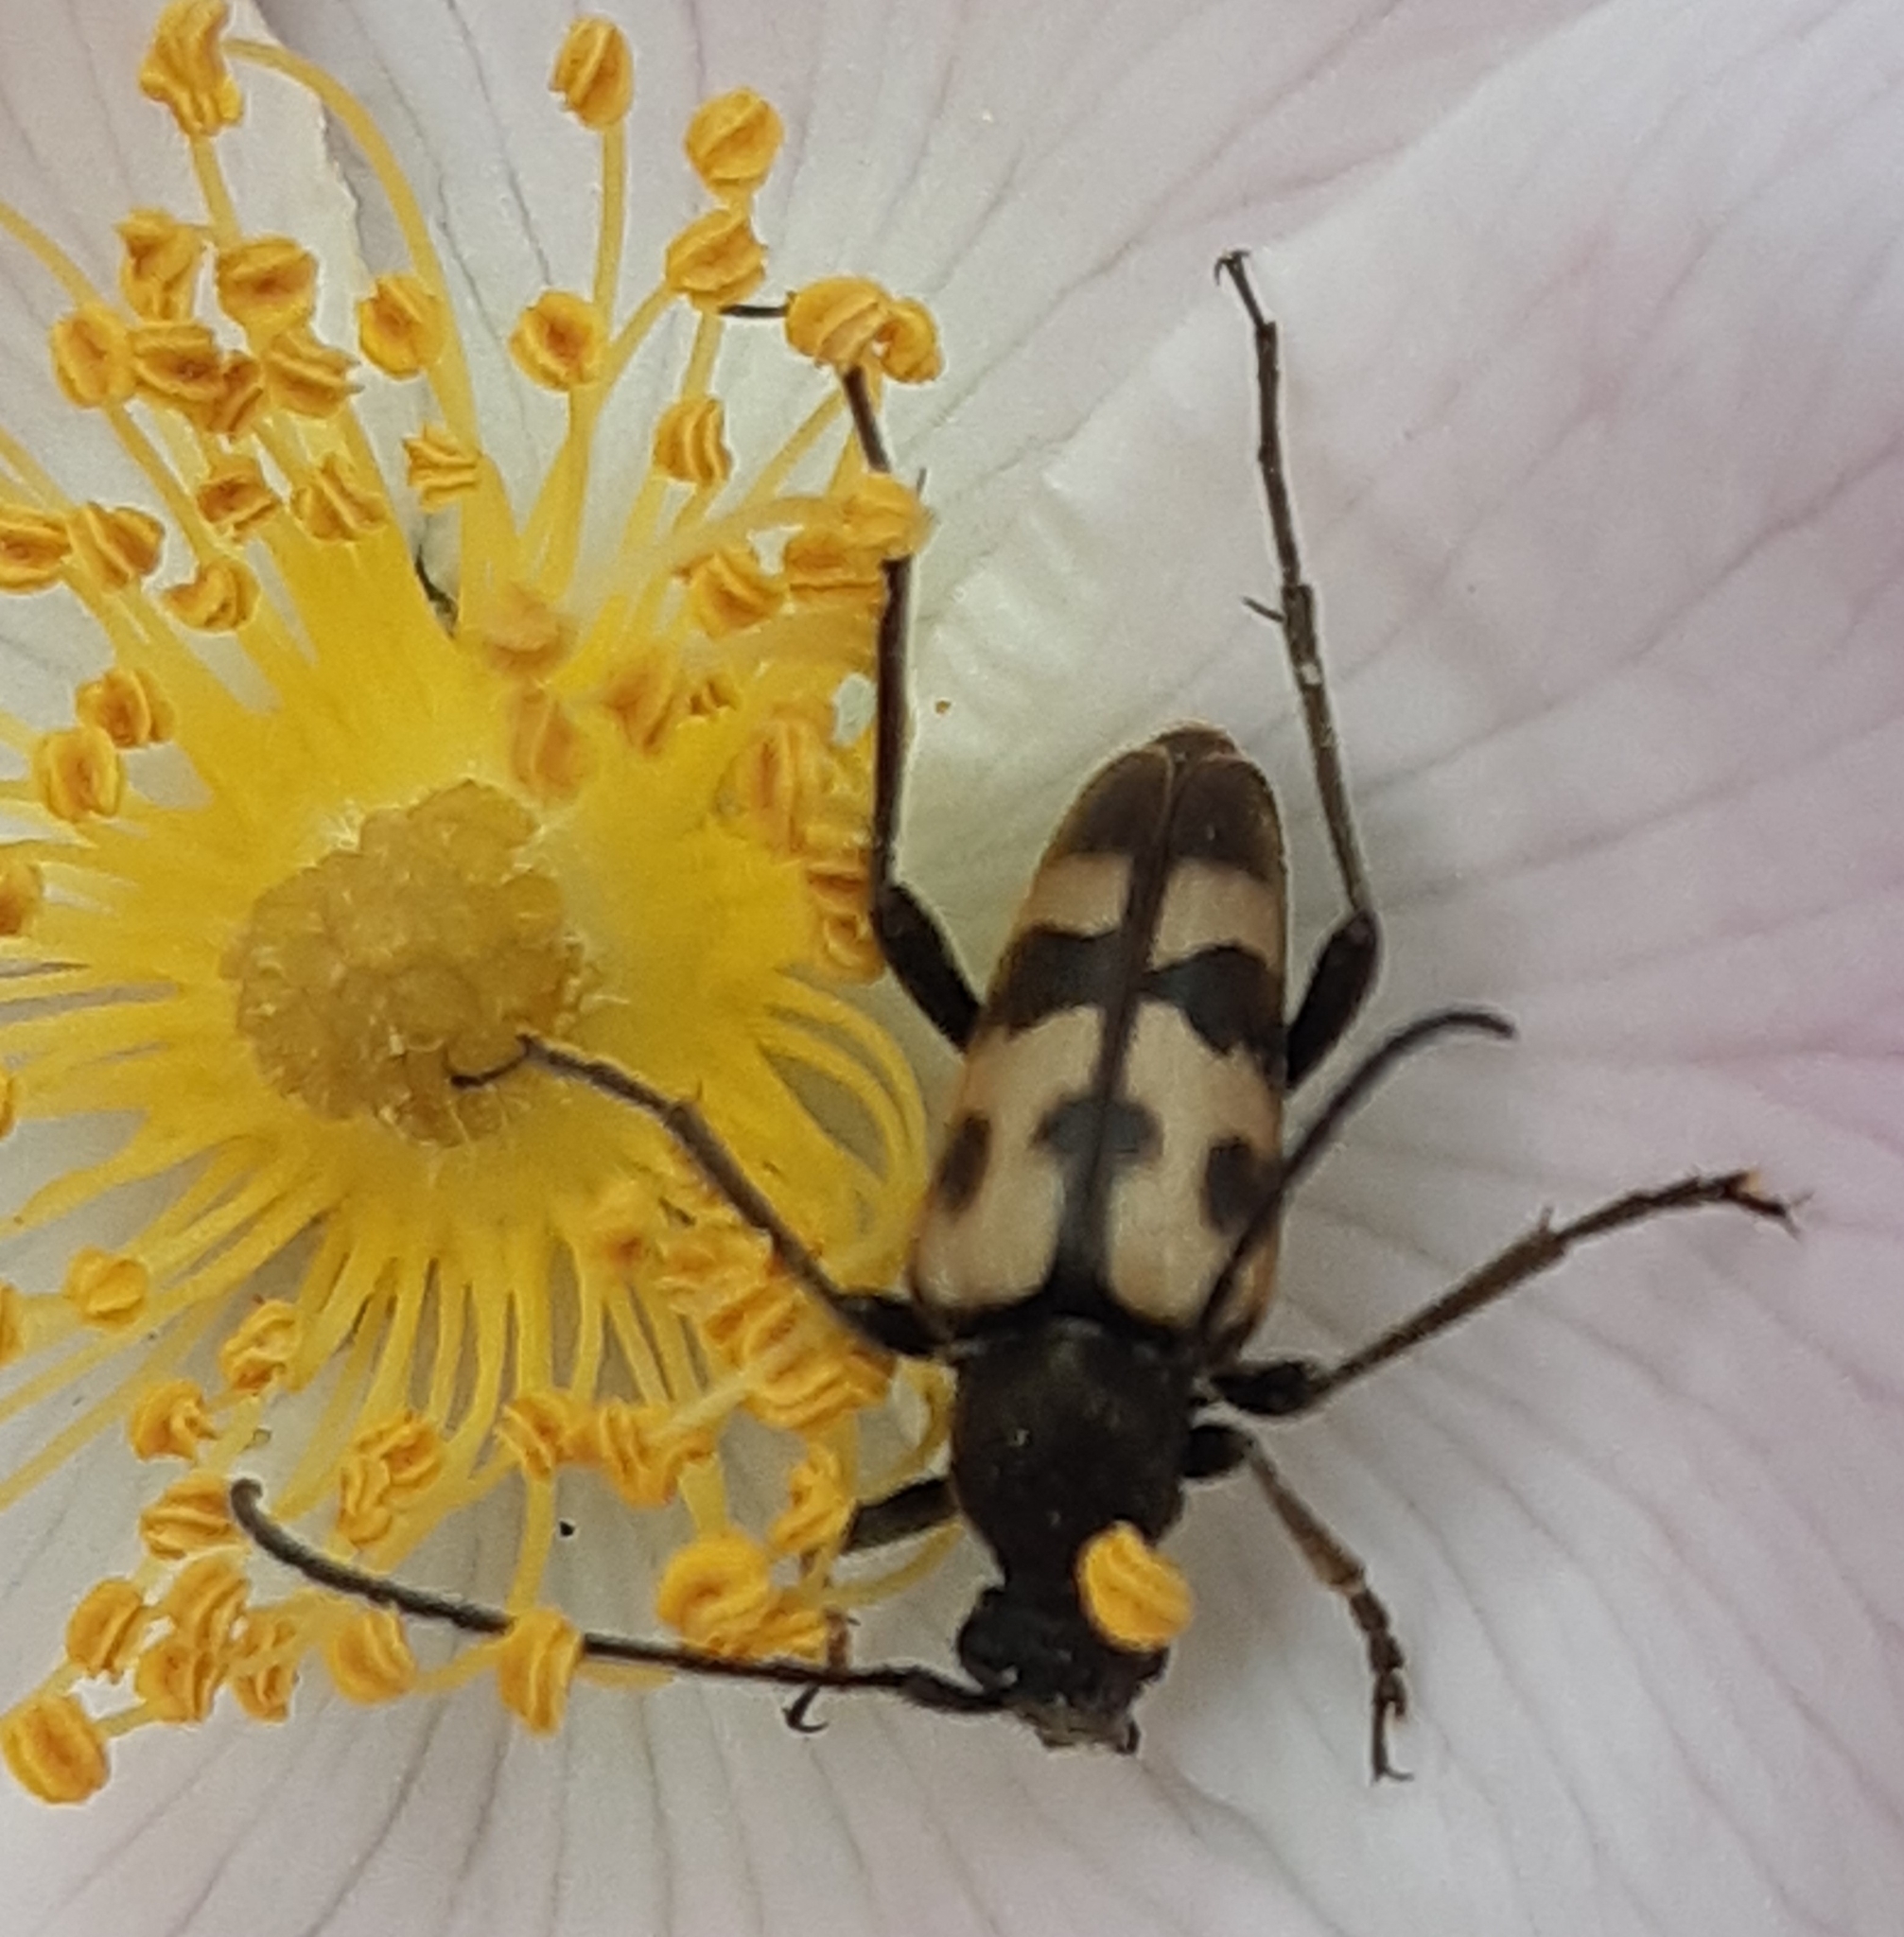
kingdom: Animalia
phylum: Arthropoda
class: Insecta
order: Coleoptera
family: Cerambycidae
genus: Pachytodes
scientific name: Pachytodes
